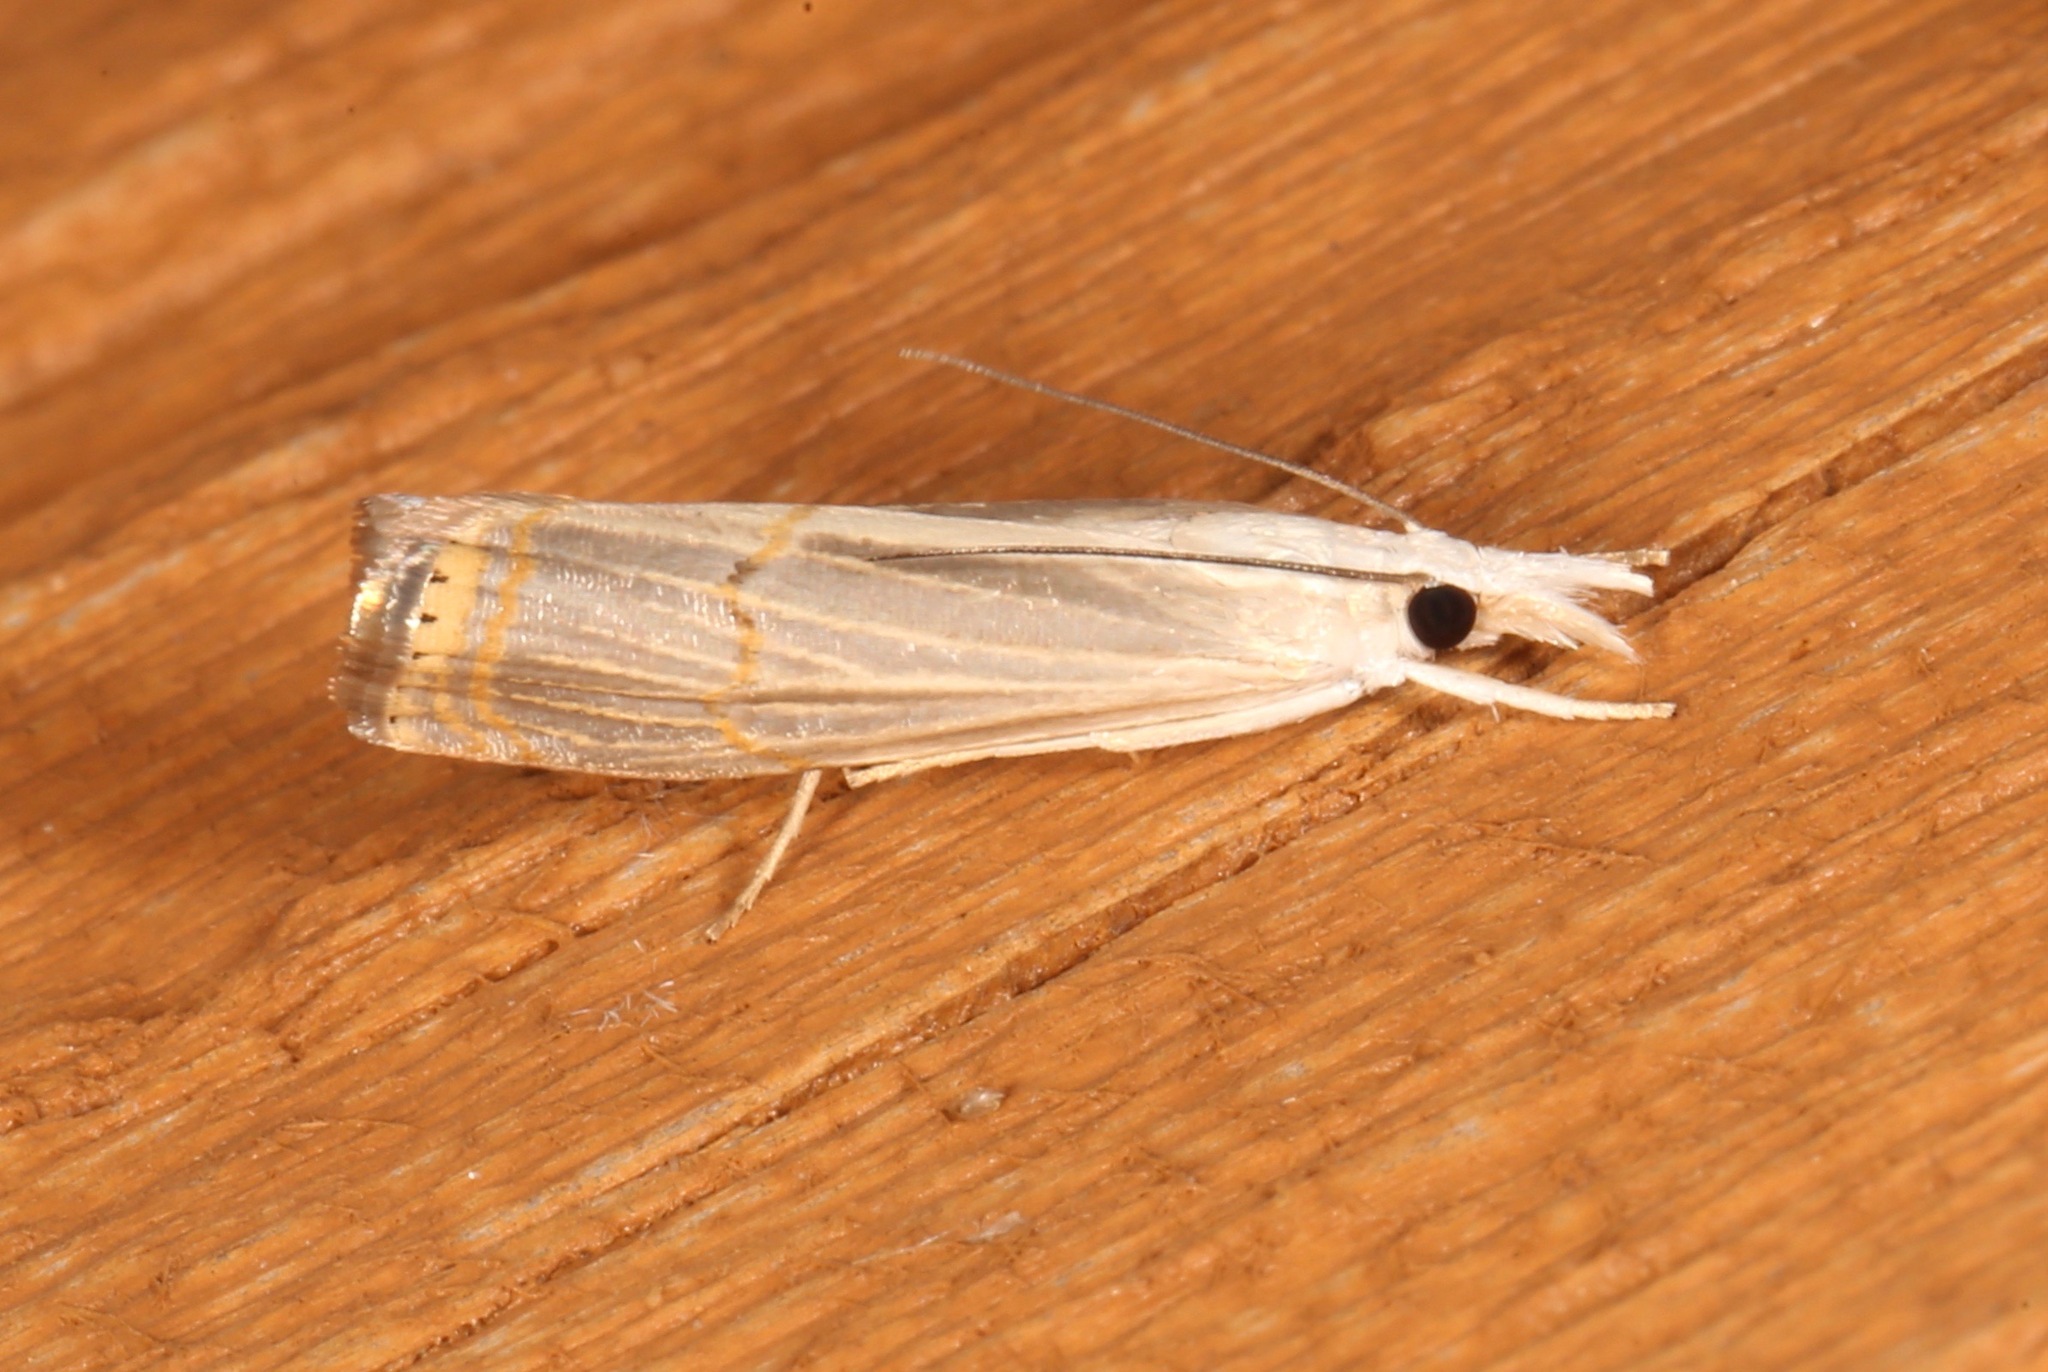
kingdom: Animalia
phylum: Arthropoda
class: Insecta
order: Lepidoptera
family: Crambidae
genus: Parapediasia
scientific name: Parapediasia decorellus
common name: Graceful grass-veneer
